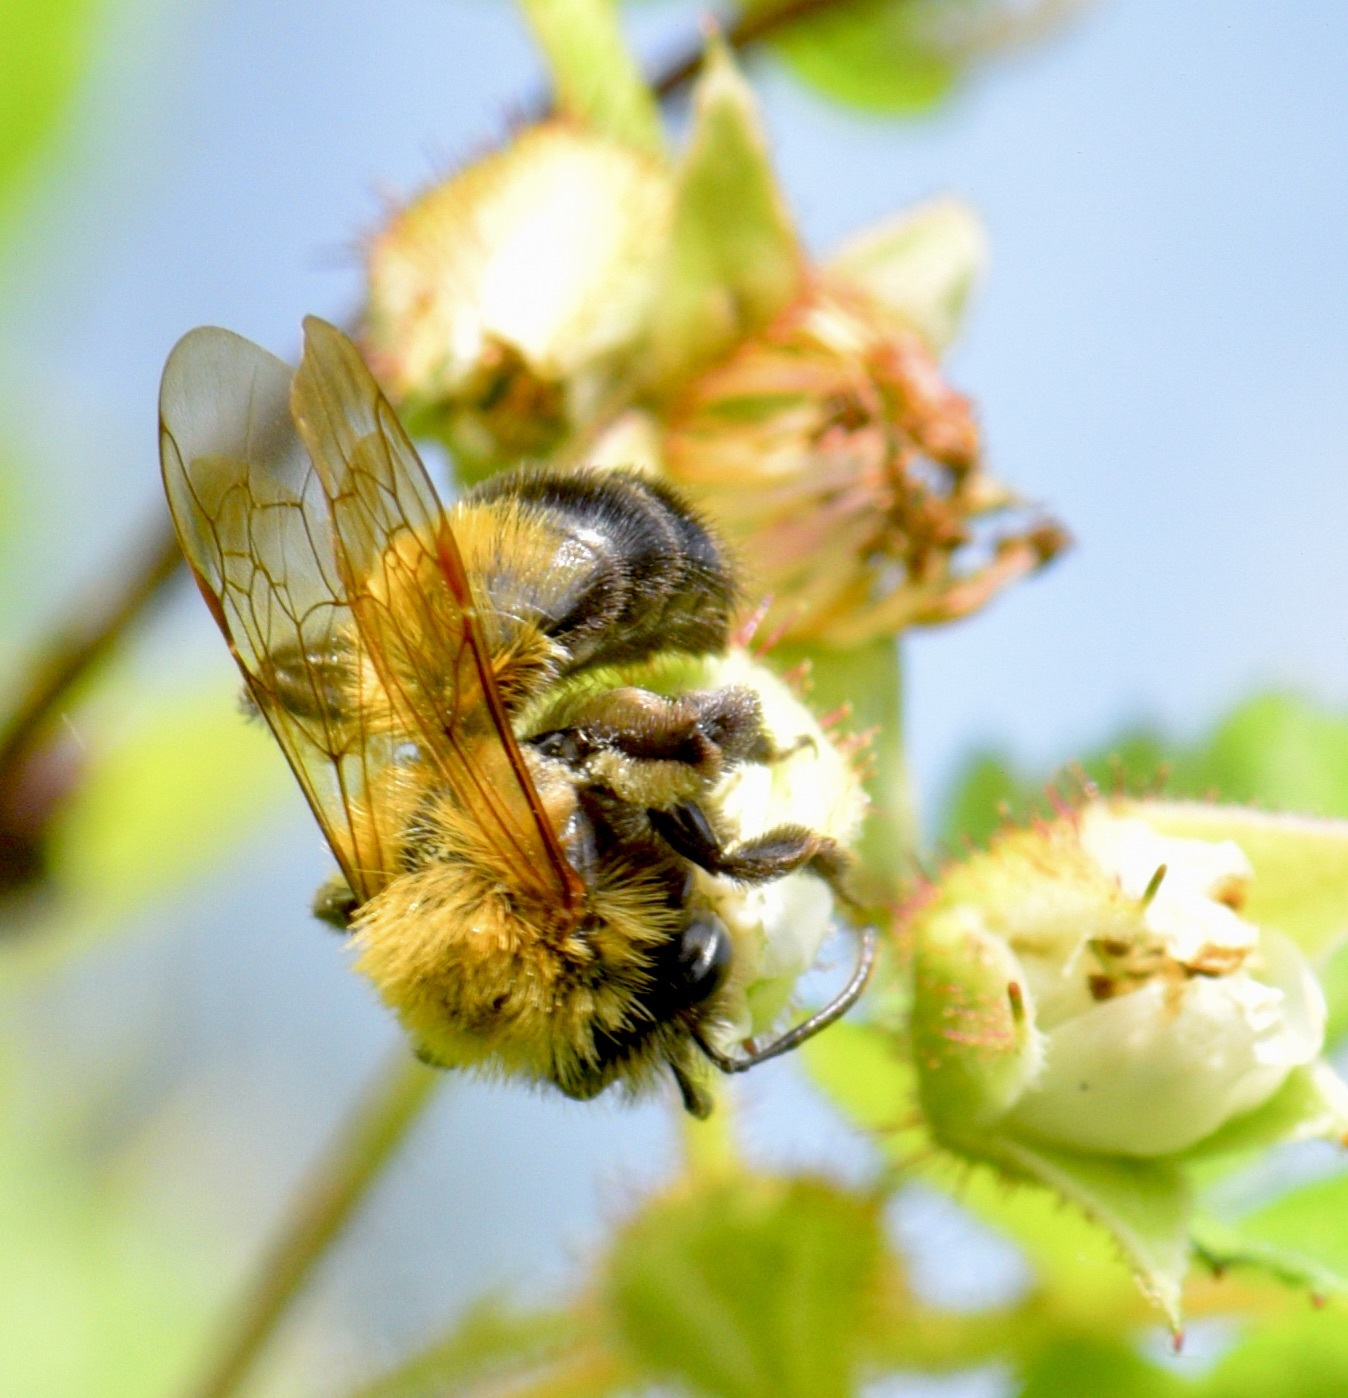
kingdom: Animalia
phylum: Arthropoda
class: Insecta
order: Hymenoptera
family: Andrenidae
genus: Andrena
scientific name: Andrena milwaukeensis
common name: Milwaukee mining bee
